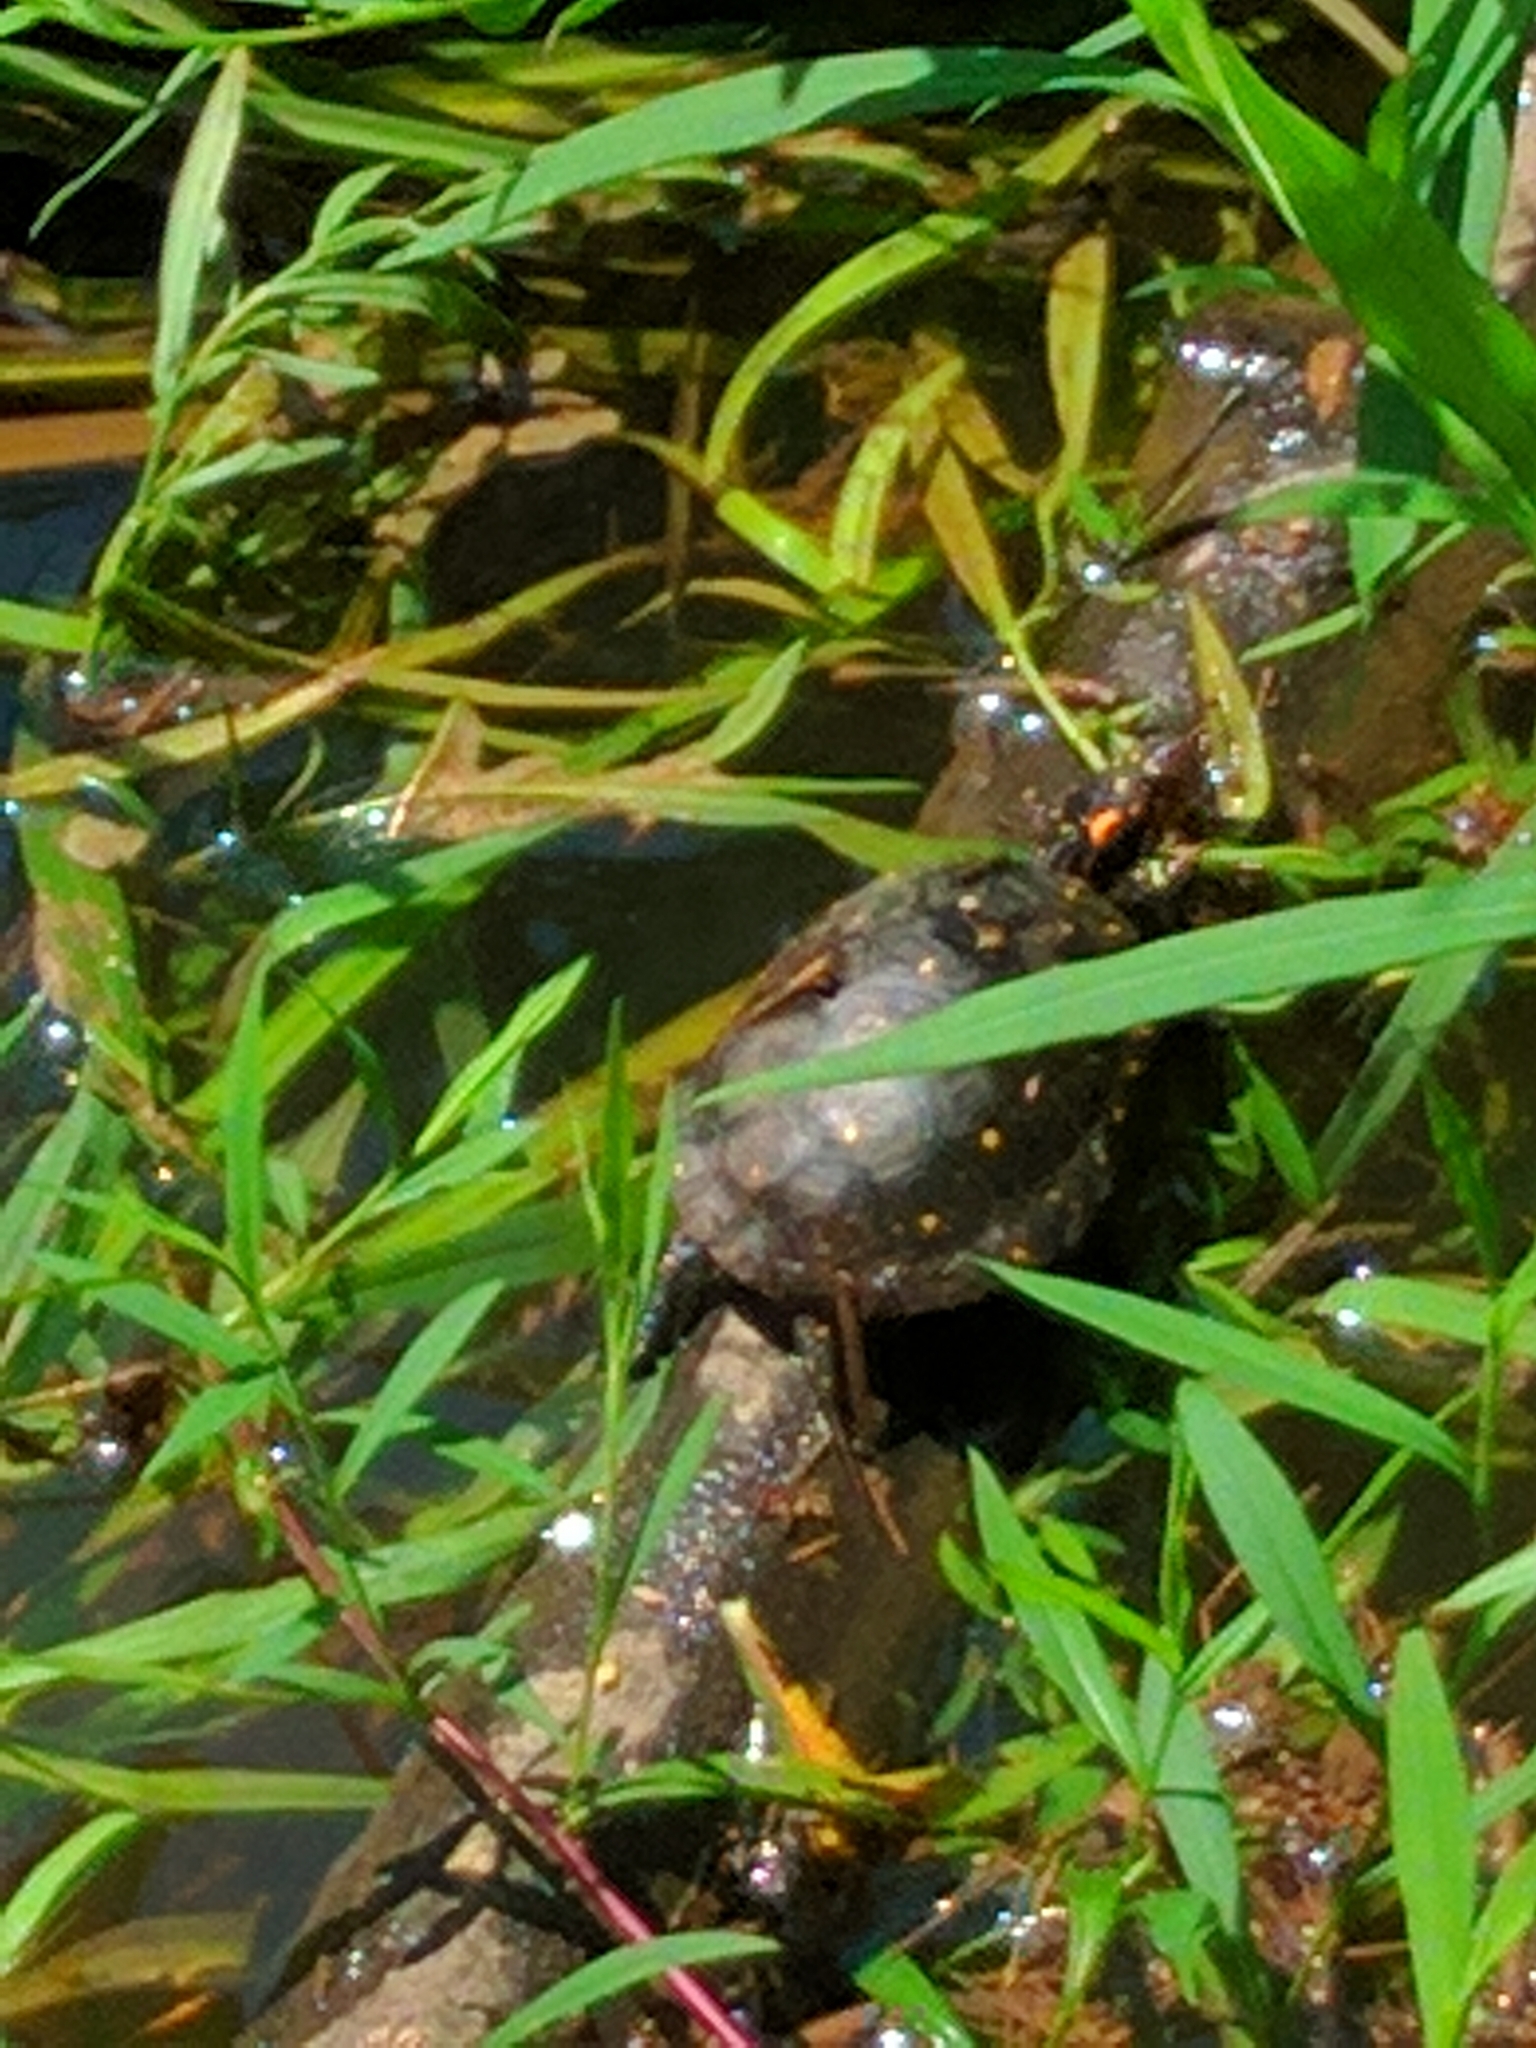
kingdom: Animalia
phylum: Chordata
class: Testudines
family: Emydidae
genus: Clemmys
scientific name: Clemmys guttata
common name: Spotted turtle
